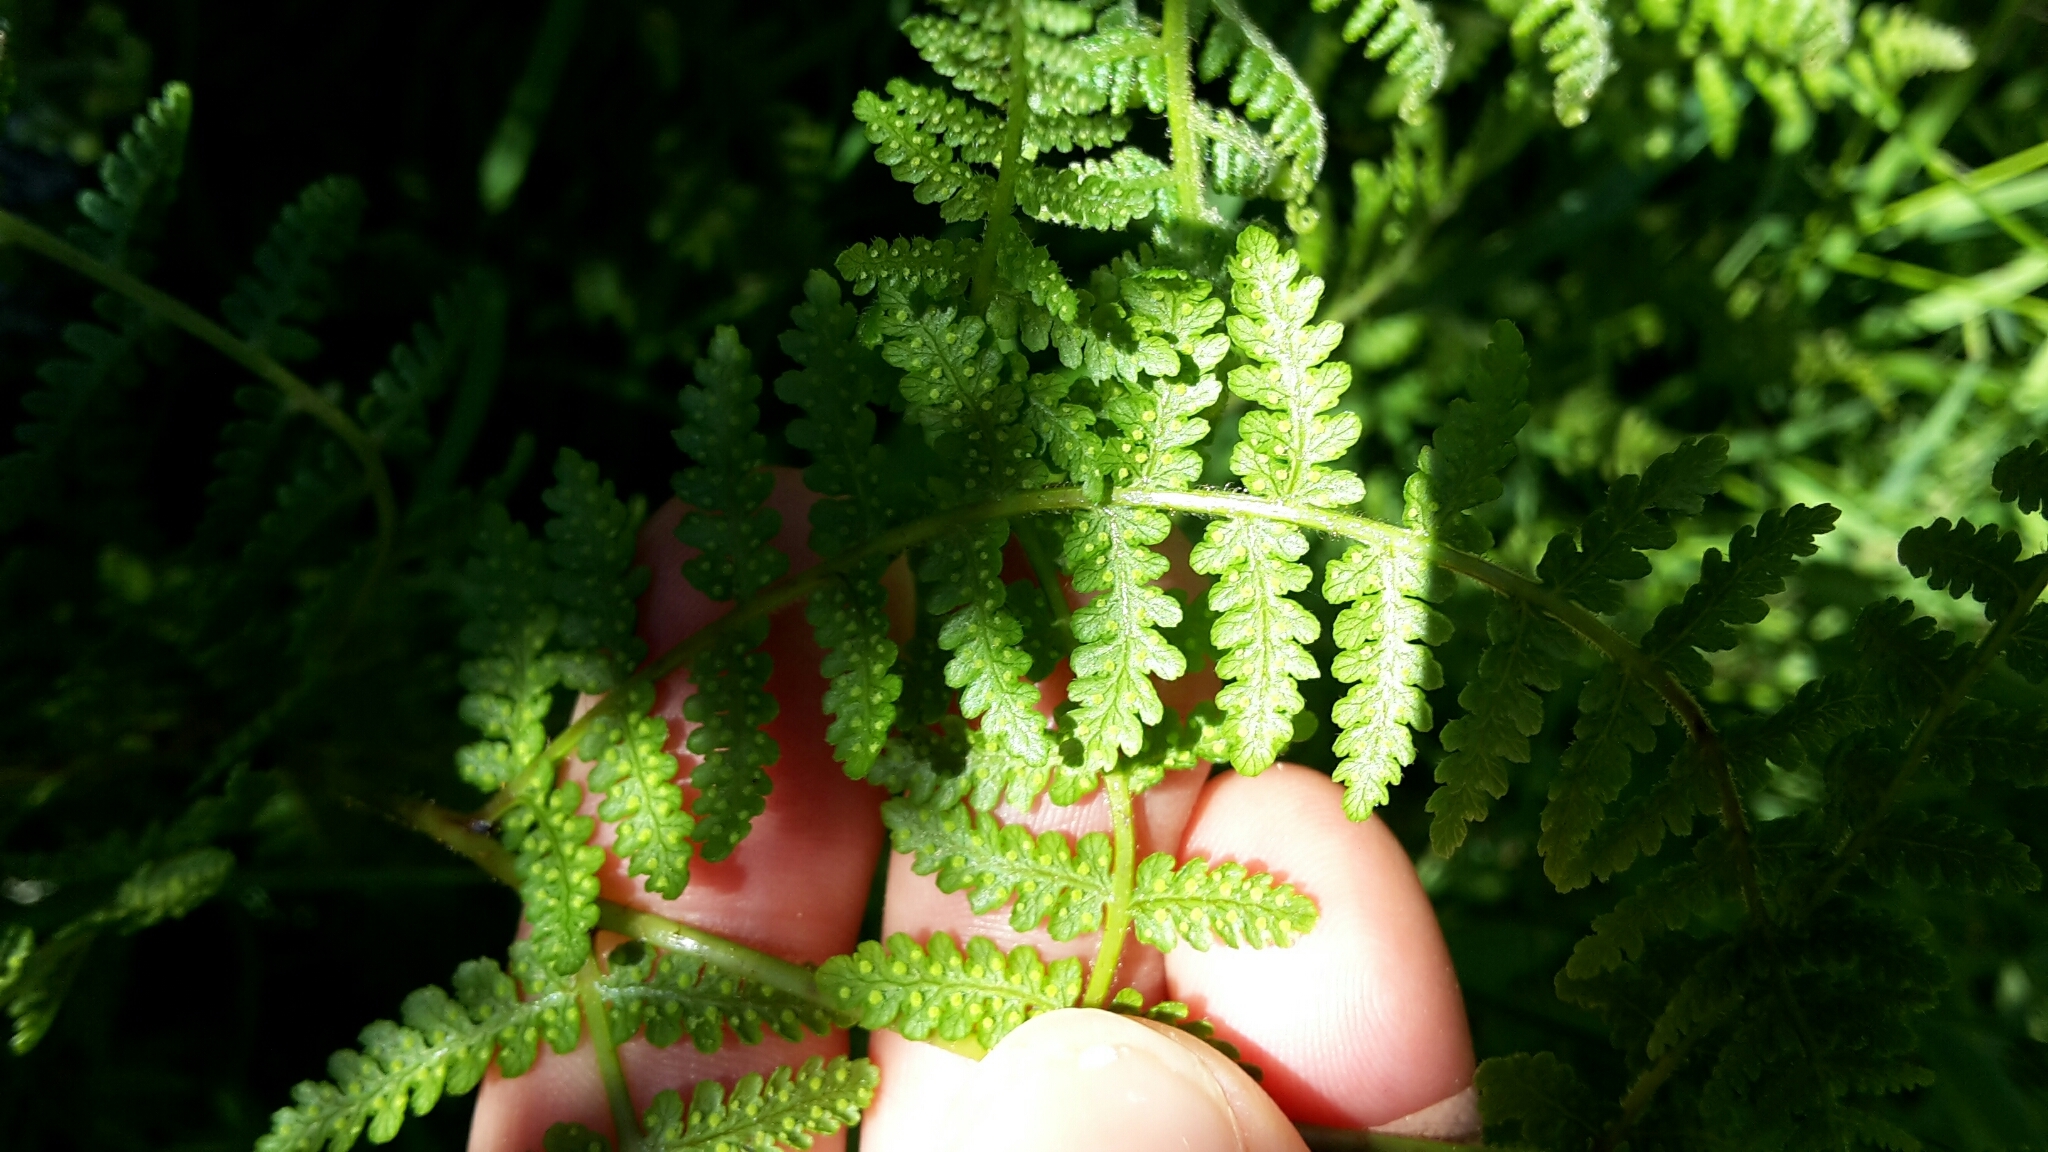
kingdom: Plantae
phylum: Tracheophyta
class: Polypodiopsida
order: Polypodiales
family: Dennstaedtiaceae
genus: Hypolepis
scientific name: Hypolepis ambigua
